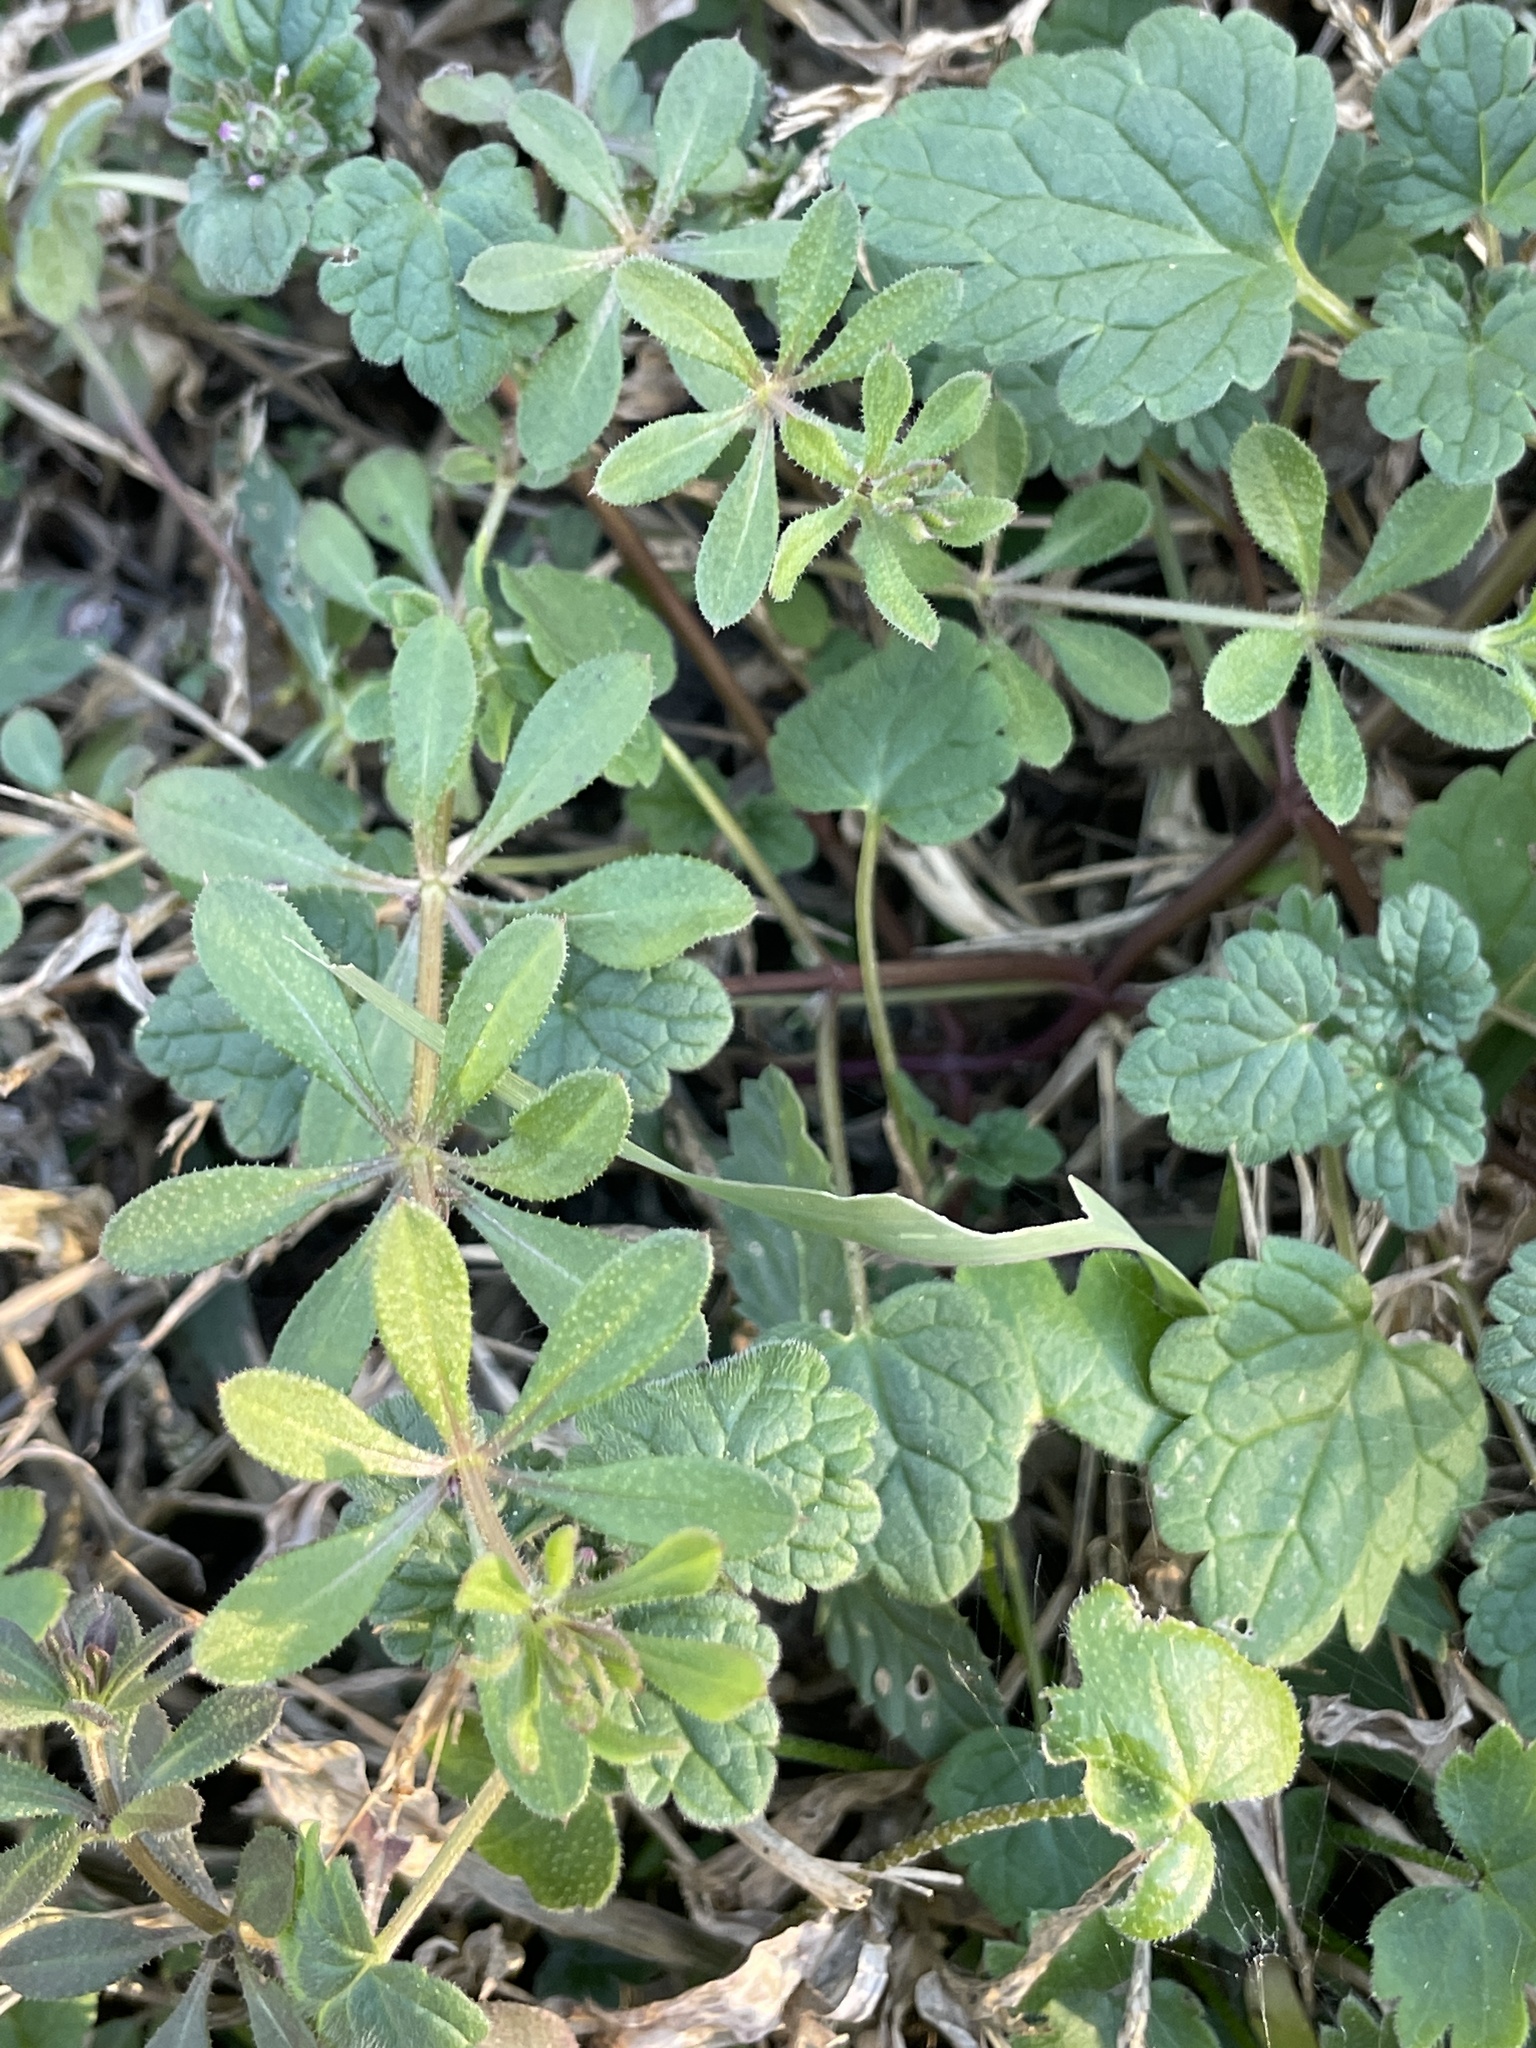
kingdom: Plantae
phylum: Tracheophyta
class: Magnoliopsida
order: Gentianales
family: Rubiaceae
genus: Galium
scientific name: Galium aparine
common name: Cleavers
